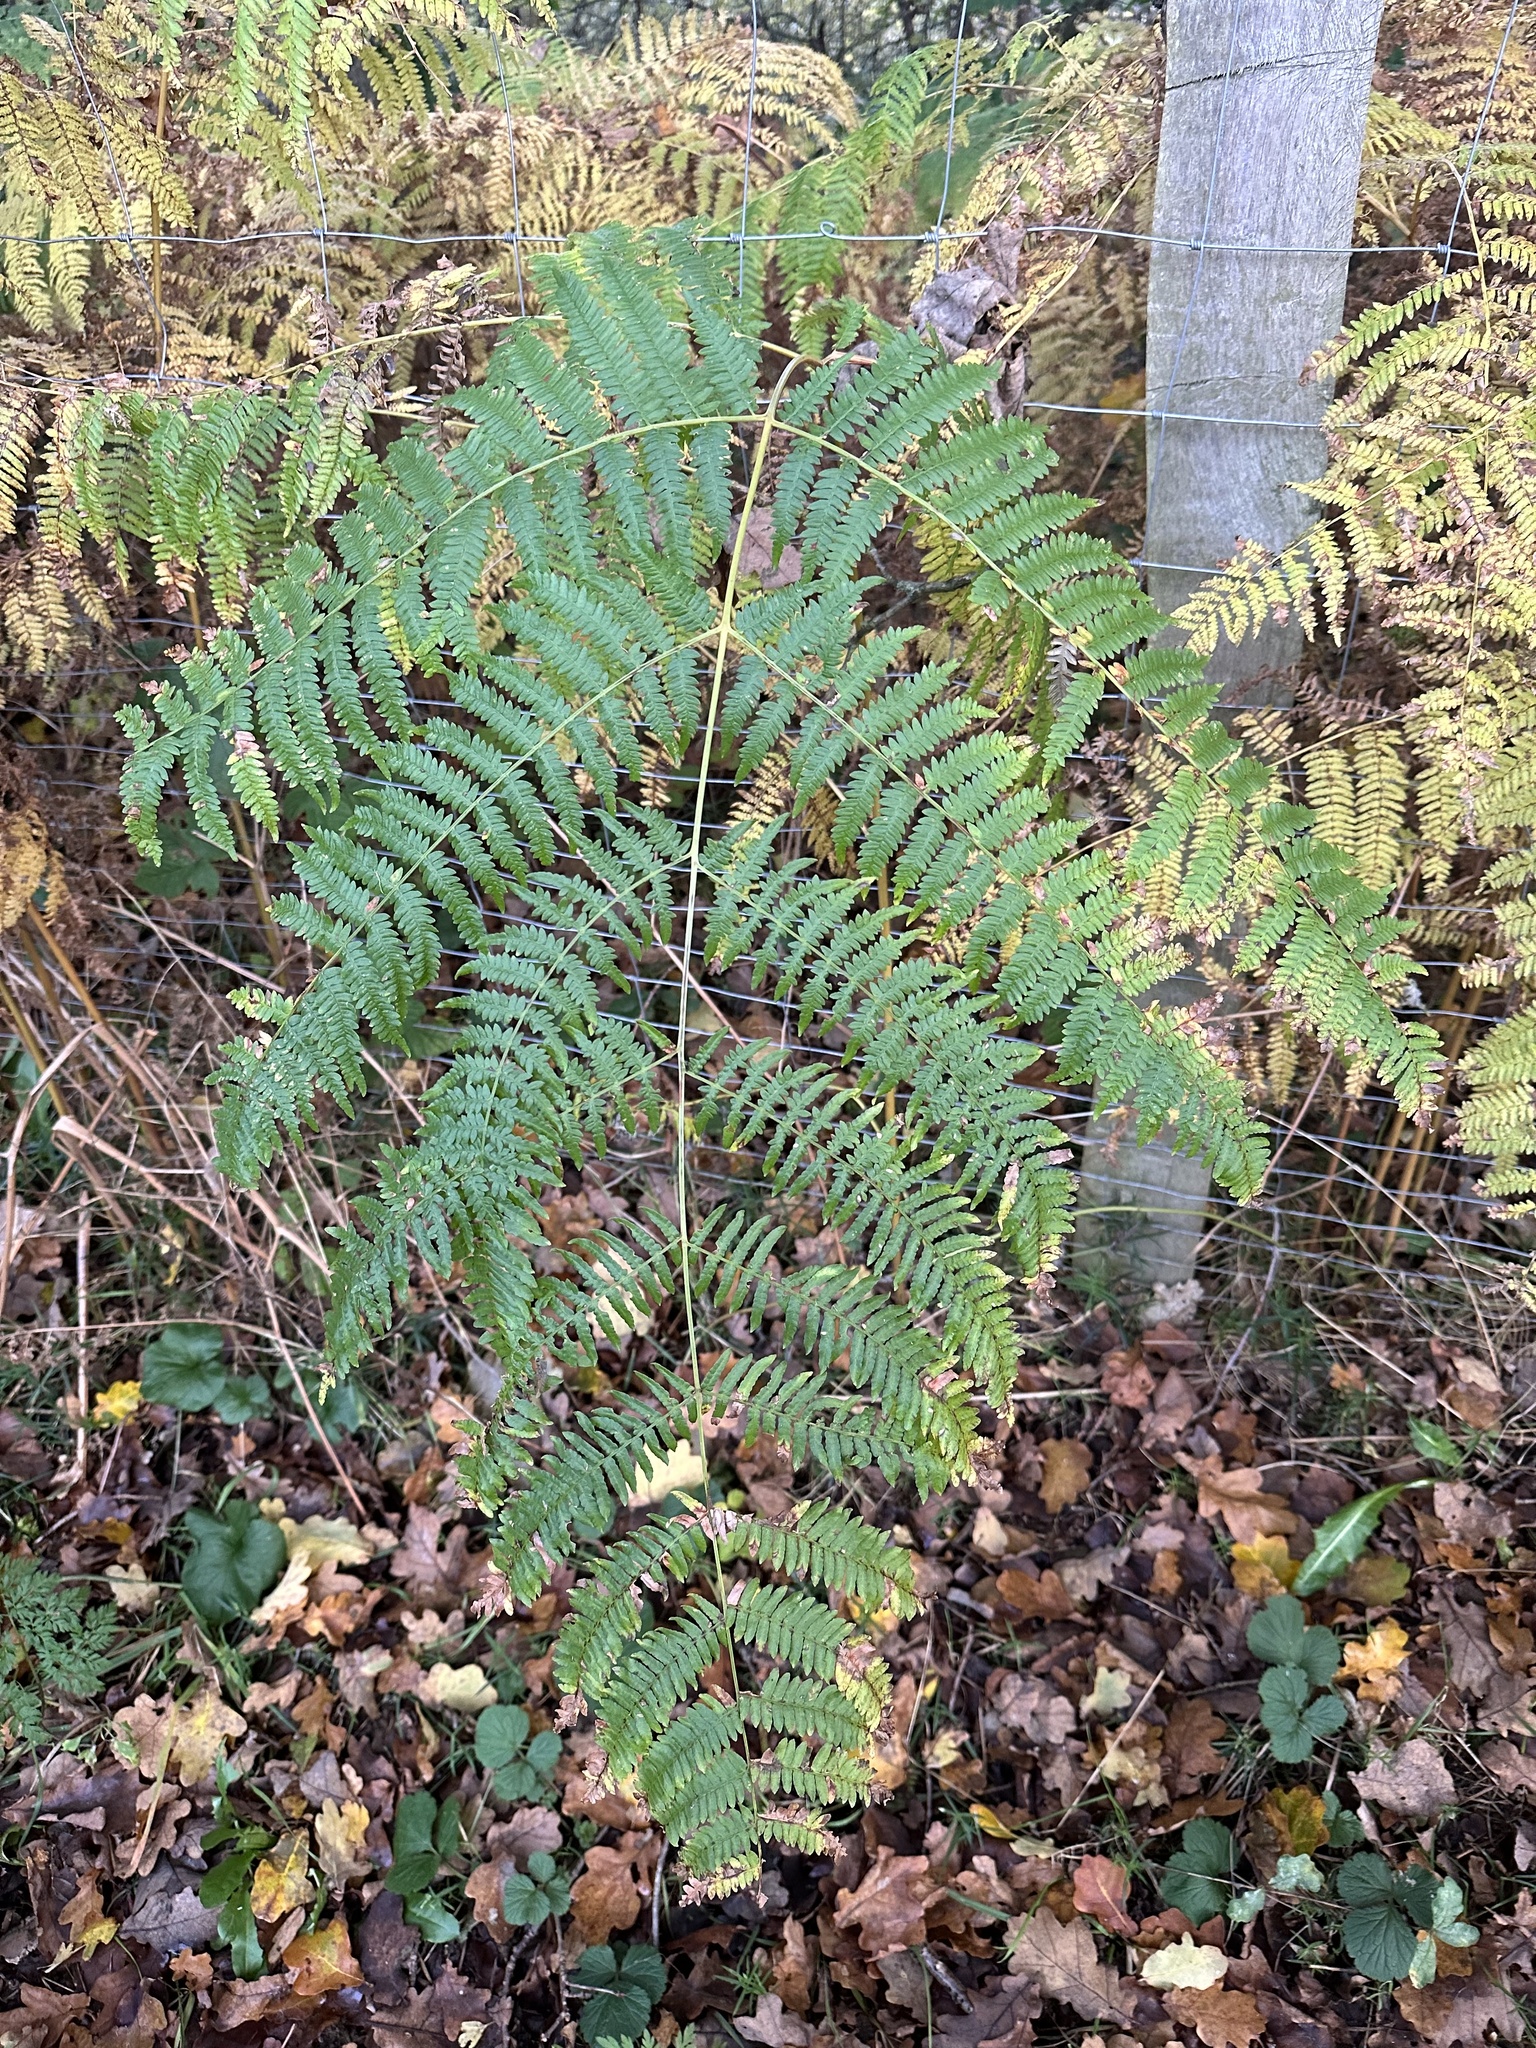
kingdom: Plantae
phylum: Tracheophyta
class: Polypodiopsida
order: Polypodiales
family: Dennstaedtiaceae
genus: Pteridium
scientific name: Pteridium aquilinum
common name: Bracken
